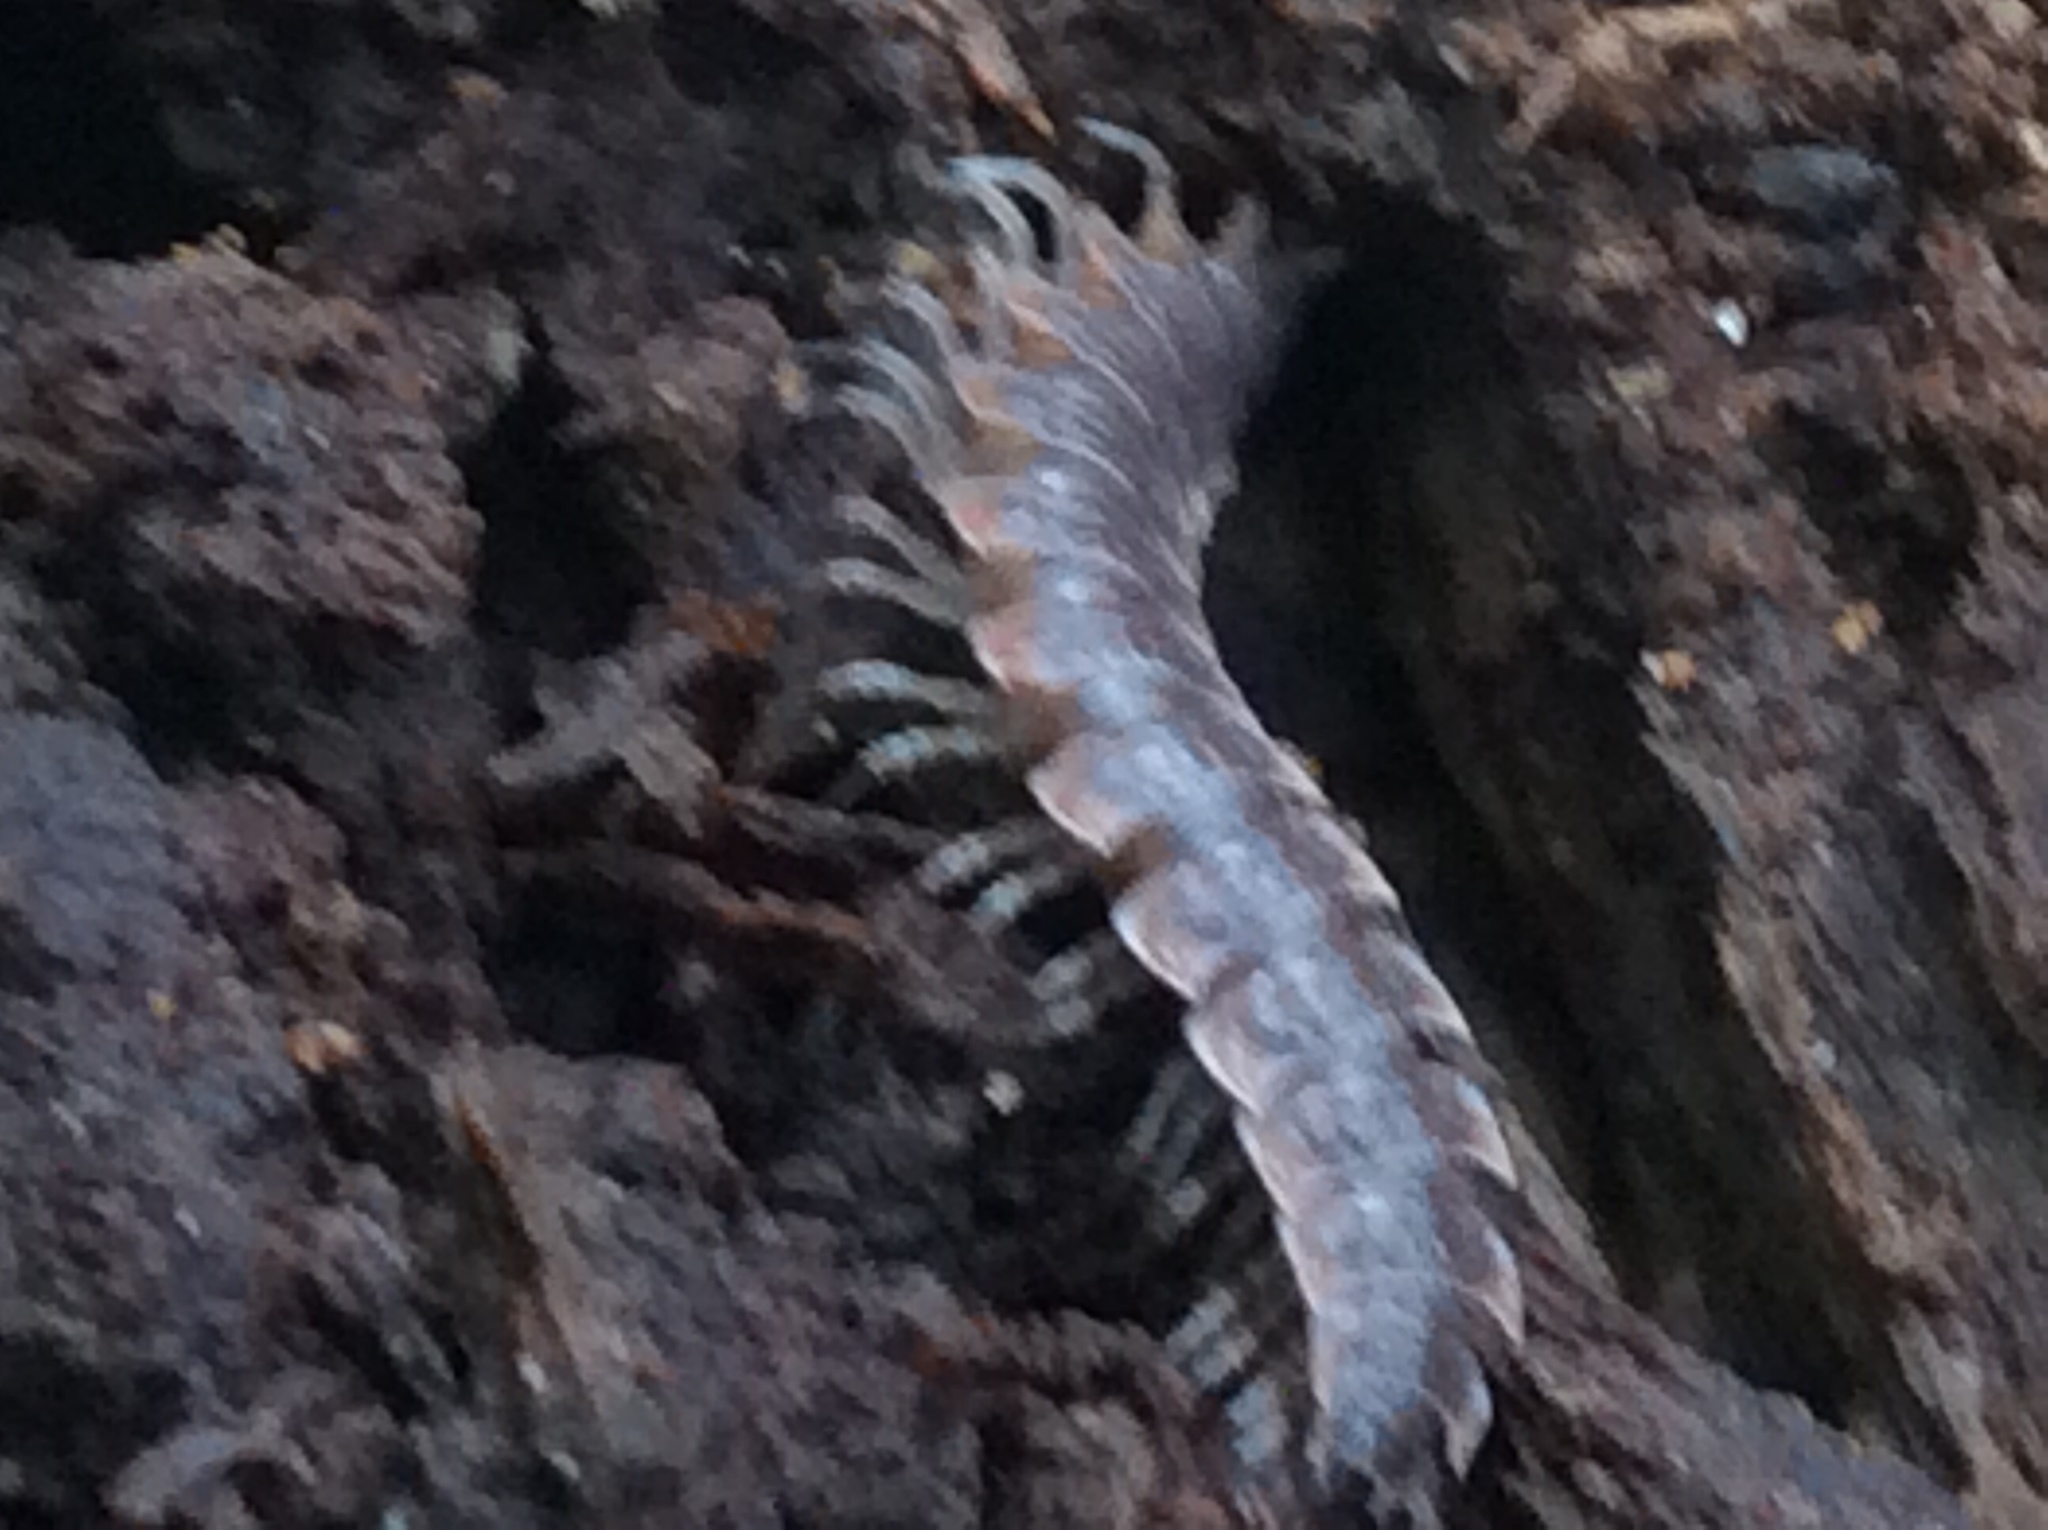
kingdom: Animalia
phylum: Arthropoda
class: Diplopoda
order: Polydesmida
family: Polydesmidae
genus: Pseudopolydesmus
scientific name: Pseudopolydesmus serratus
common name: Common pink flat-back millipede
